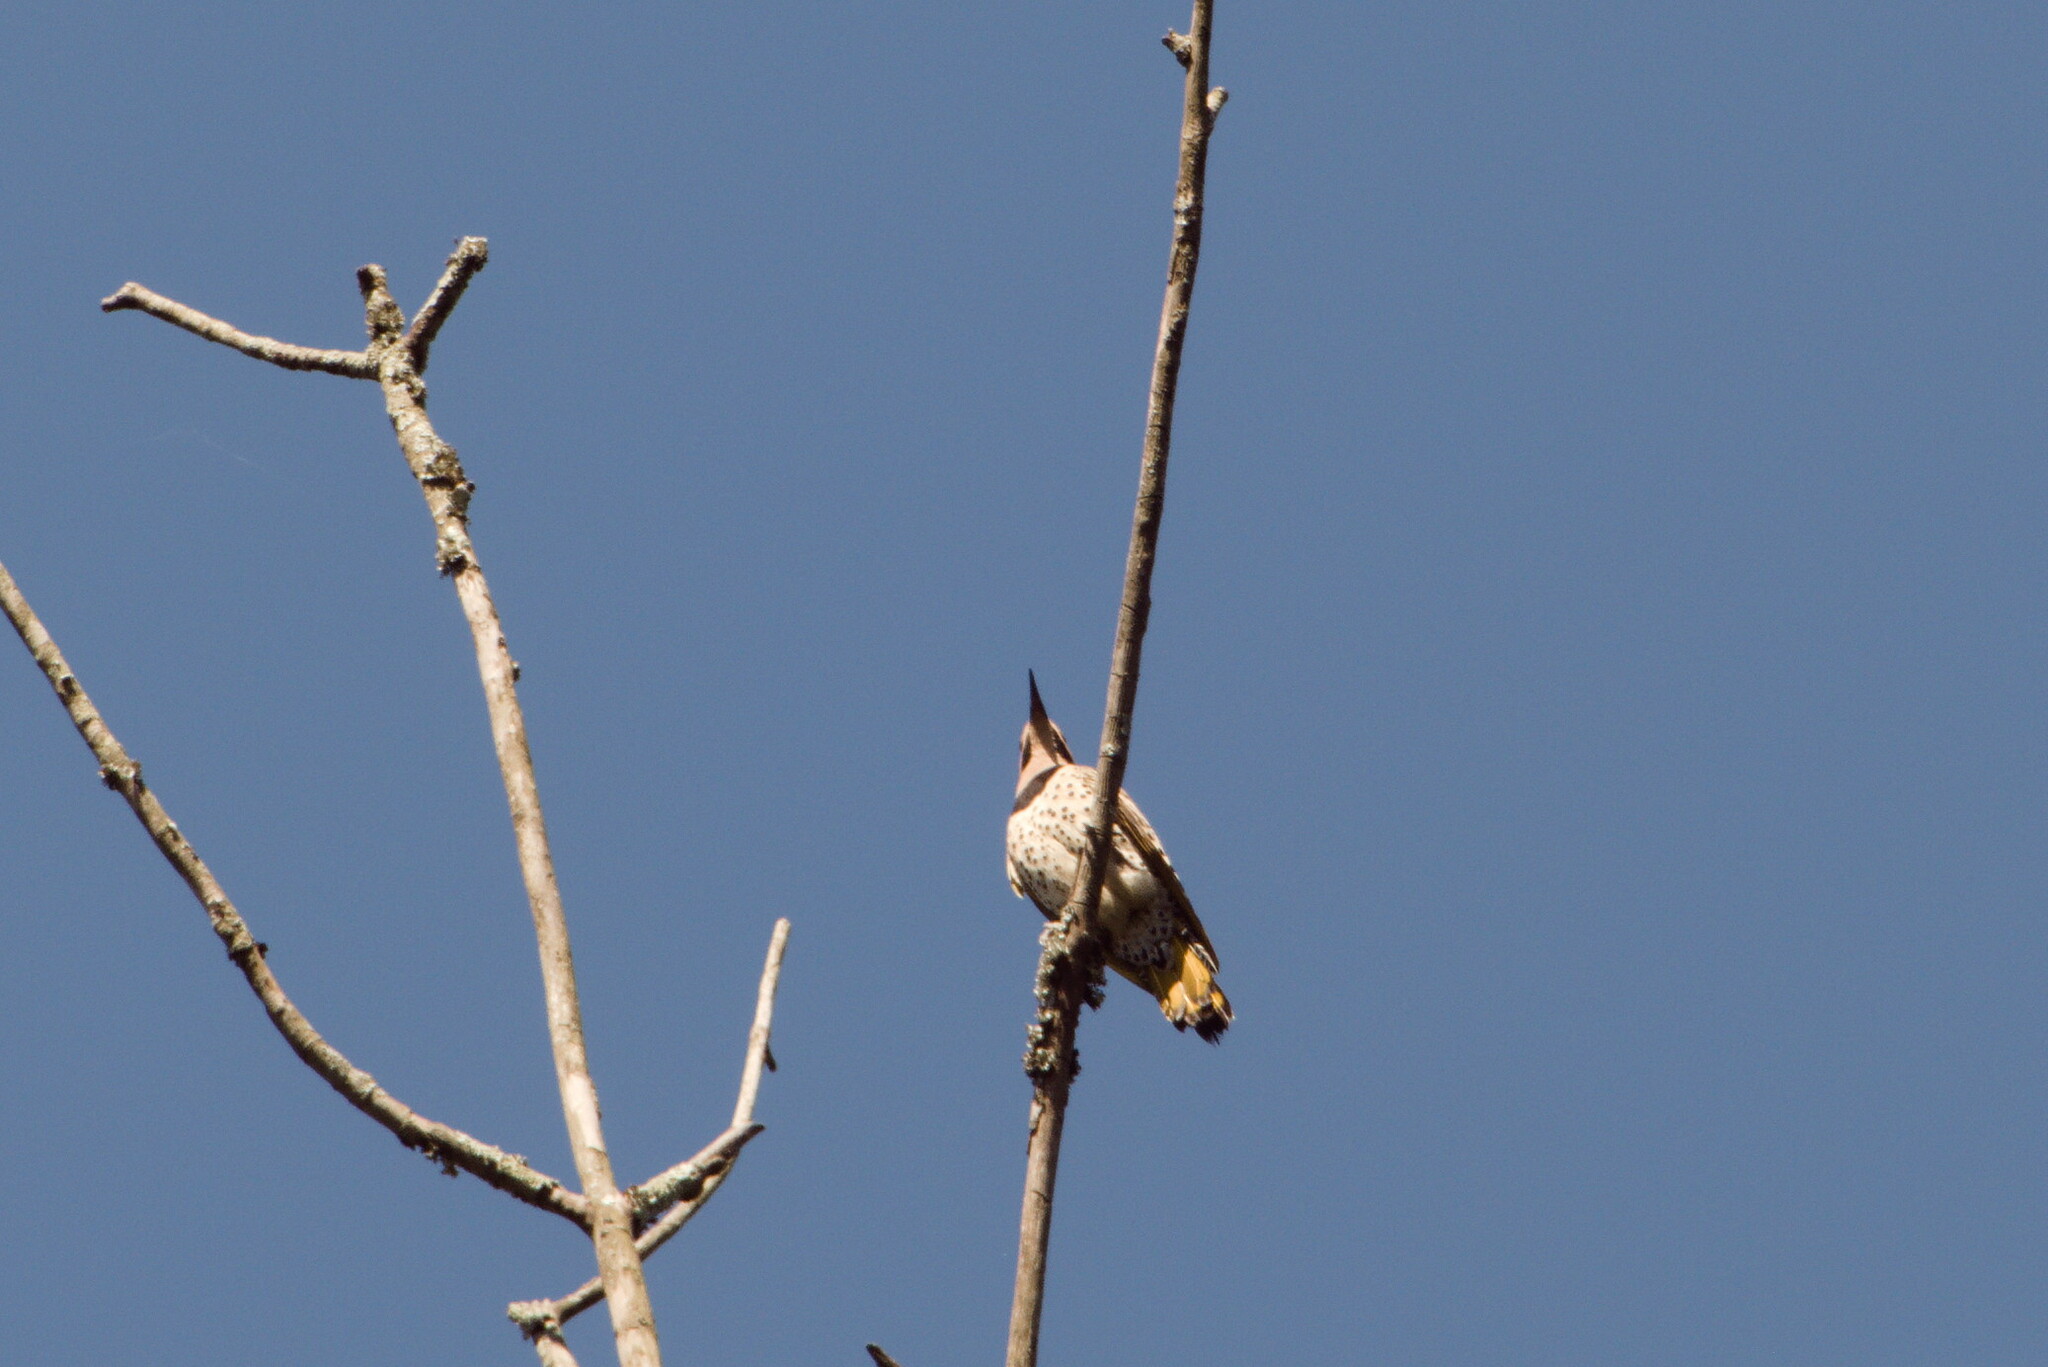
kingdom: Animalia
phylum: Chordata
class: Aves
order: Piciformes
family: Picidae
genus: Colaptes
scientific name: Colaptes auratus
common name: Northern flicker
